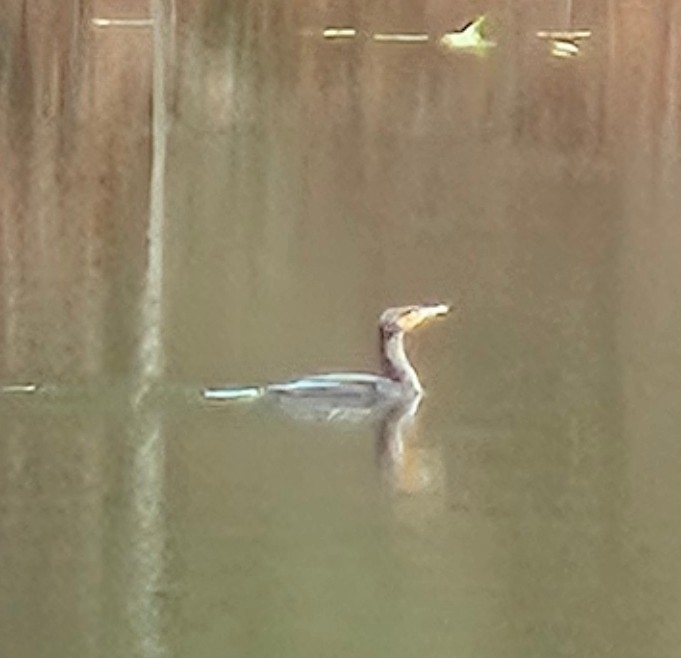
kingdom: Animalia
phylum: Chordata
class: Aves
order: Suliformes
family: Phalacrocoracidae
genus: Phalacrocorax
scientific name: Phalacrocorax auritus
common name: Double-crested cormorant
